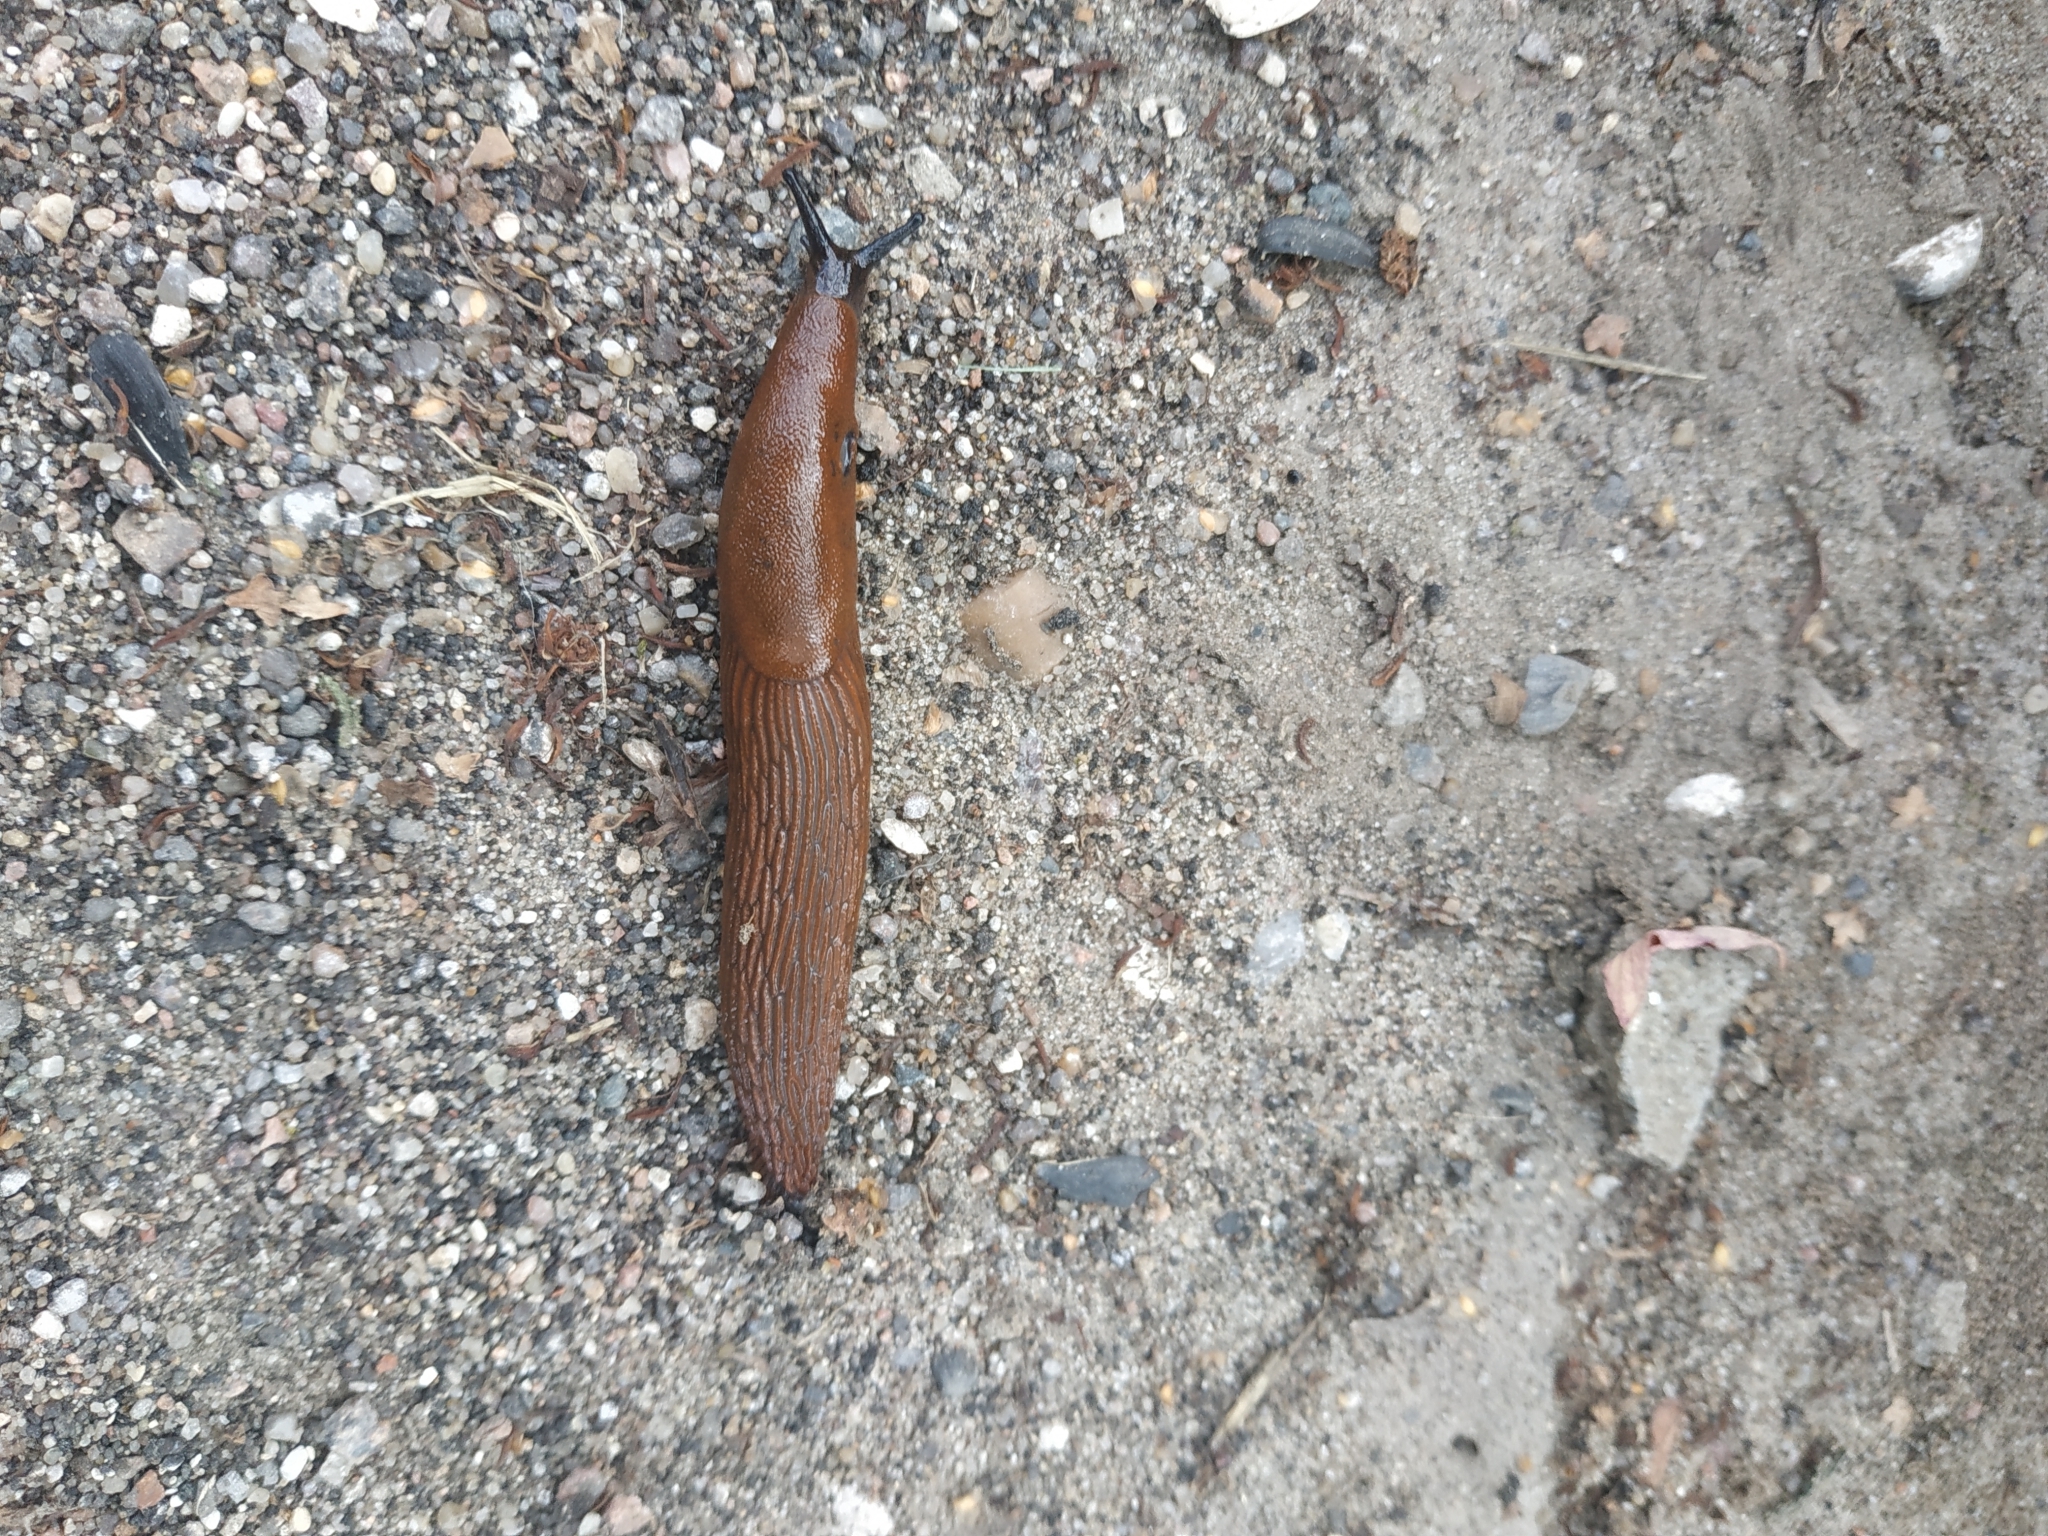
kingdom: Animalia
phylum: Mollusca
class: Gastropoda
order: Stylommatophora
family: Arionidae
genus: Arion
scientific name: Arion
